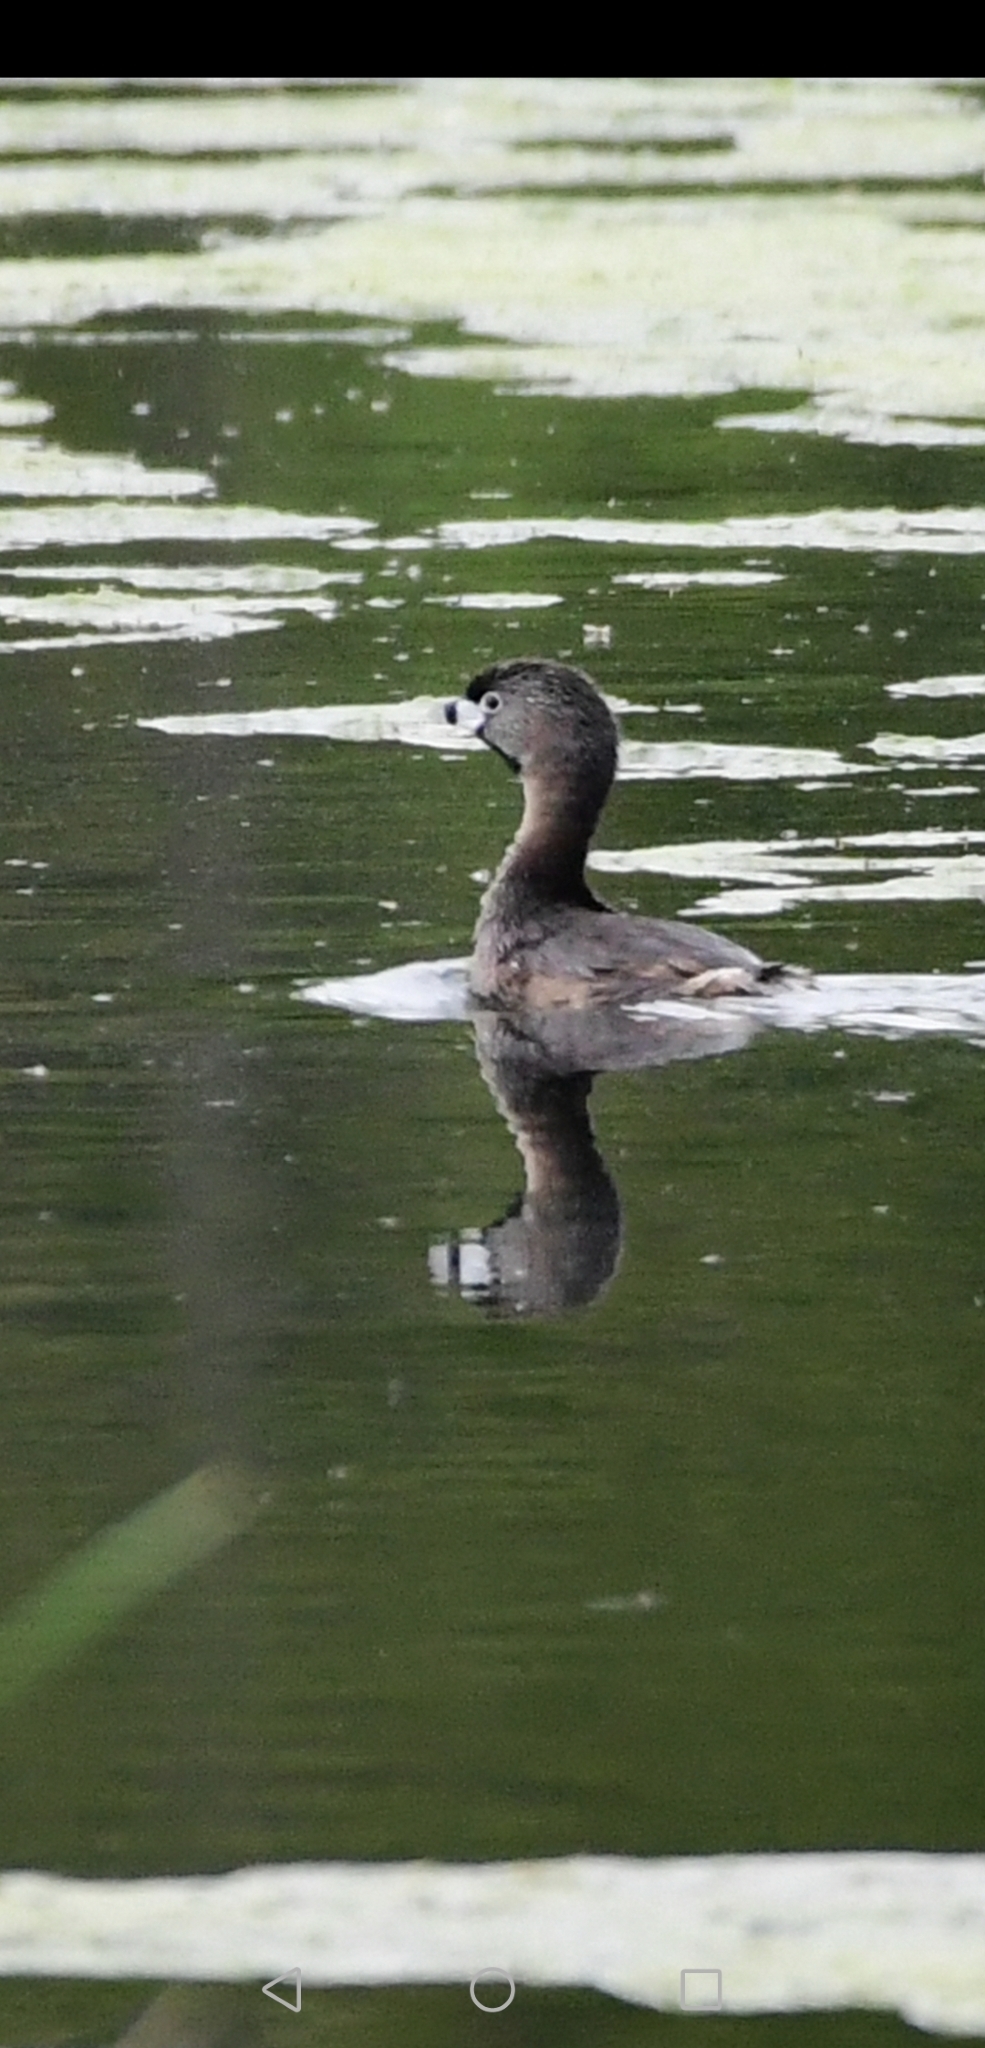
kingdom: Animalia
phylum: Chordata
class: Aves
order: Podicipediformes
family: Podicipedidae
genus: Podilymbus
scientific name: Podilymbus podiceps
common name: Pied-billed grebe
